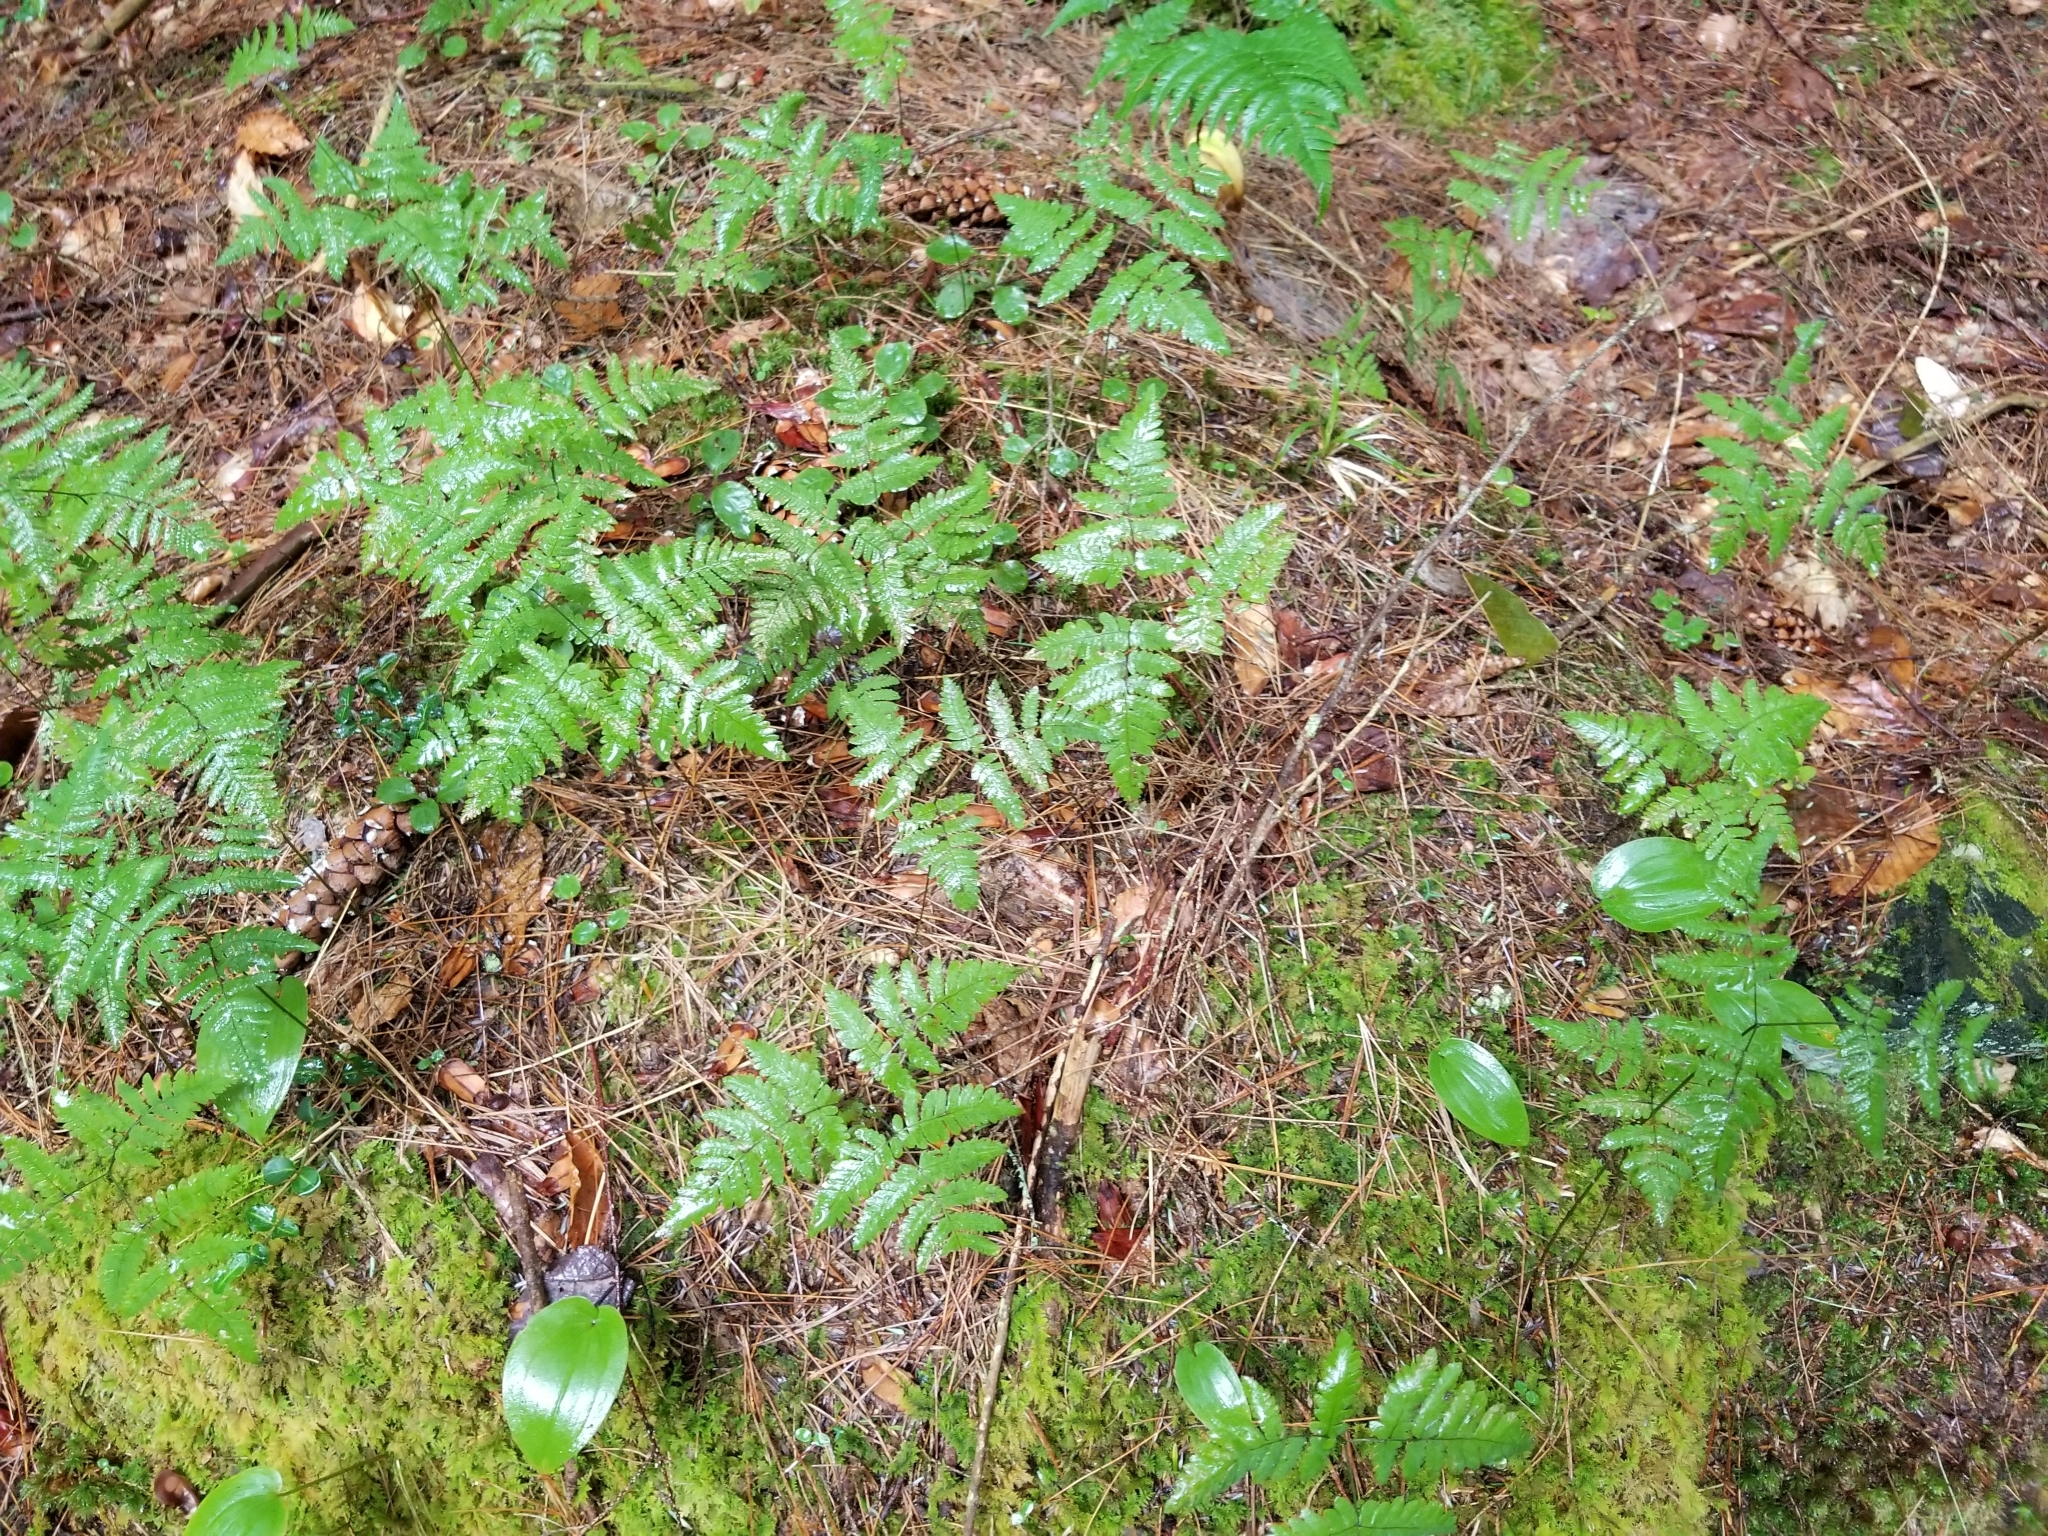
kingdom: Plantae
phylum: Tracheophyta
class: Polypodiopsida
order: Polypodiales
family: Cystopteridaceae
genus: Gymnocarpium
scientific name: Gymnocarpium dryopteris
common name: Oak fern
